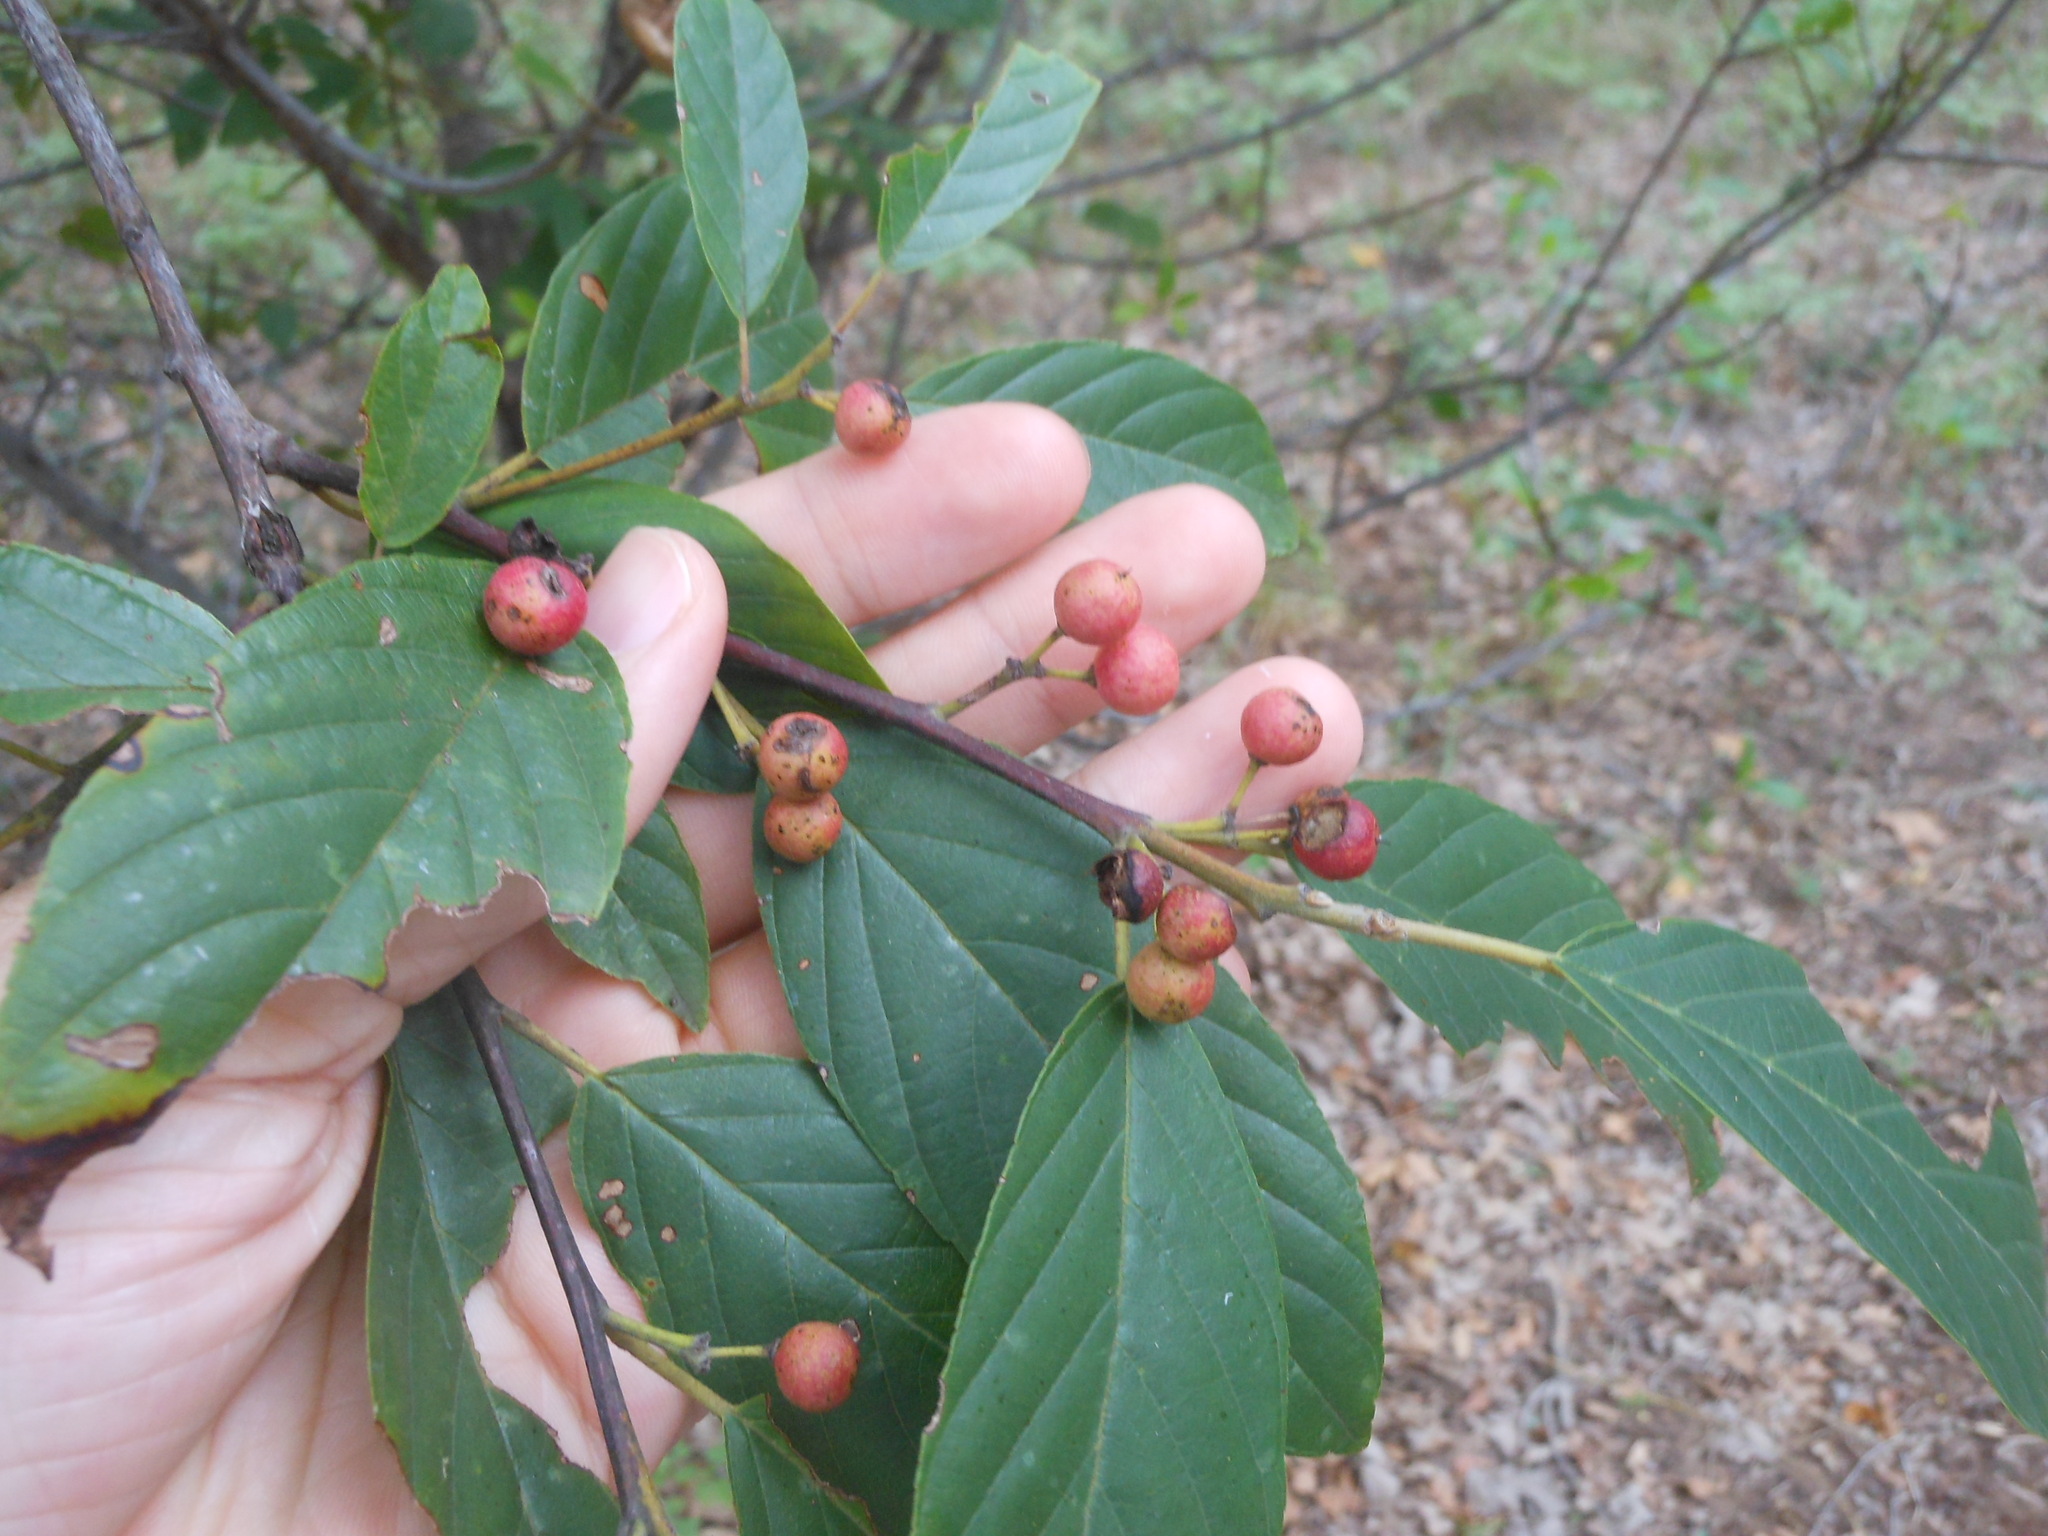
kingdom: Plantae
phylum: Tracheophyta
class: Magnoliopsida
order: Rosales
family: Rhamnaceae
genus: Frangula
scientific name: Frangula caroliniana
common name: Carolina buckthorn
